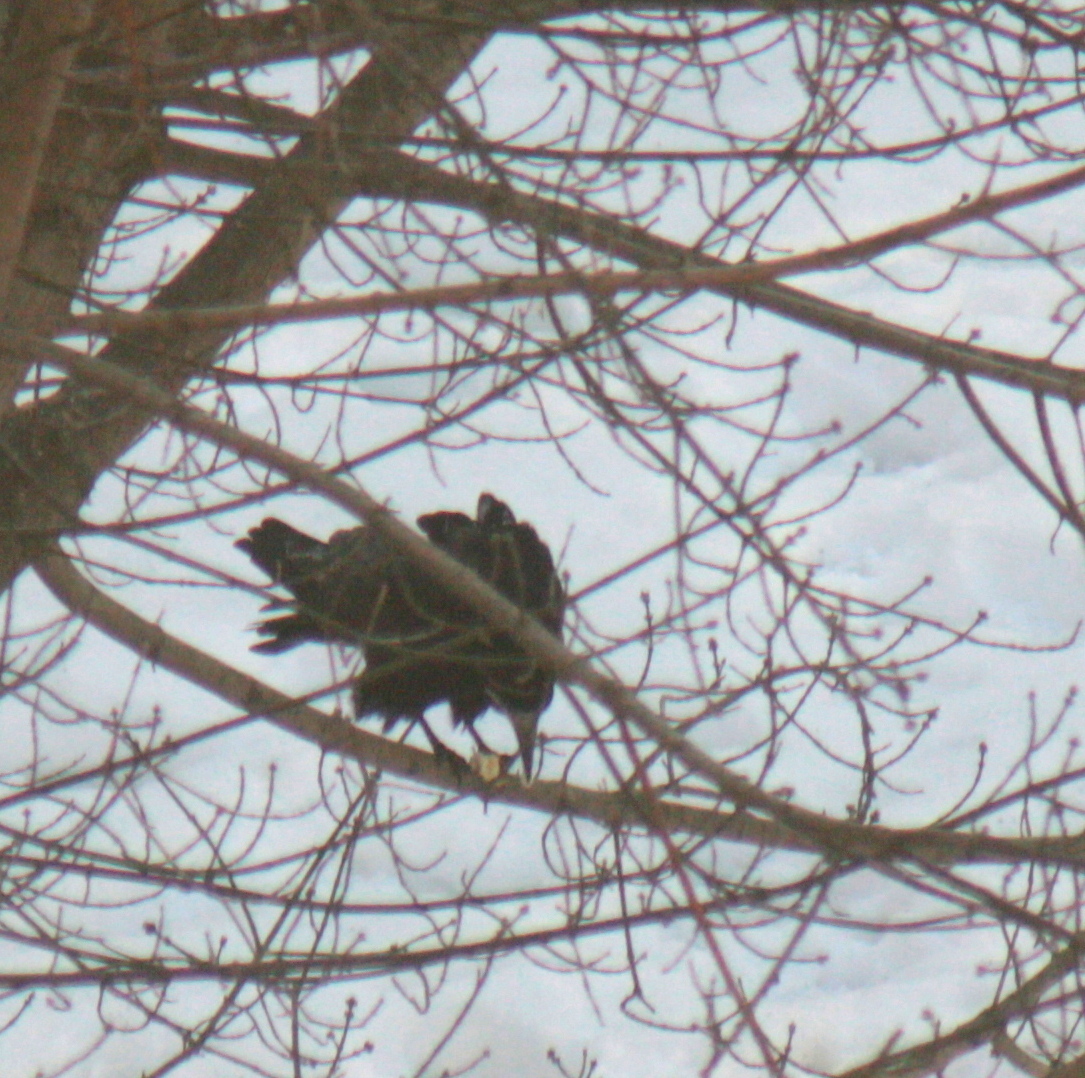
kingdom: Animalia
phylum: Chordata
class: Aves
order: Passeriformes
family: Corvidae
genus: Corvus
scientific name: Corvus frugilegus
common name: Rook
